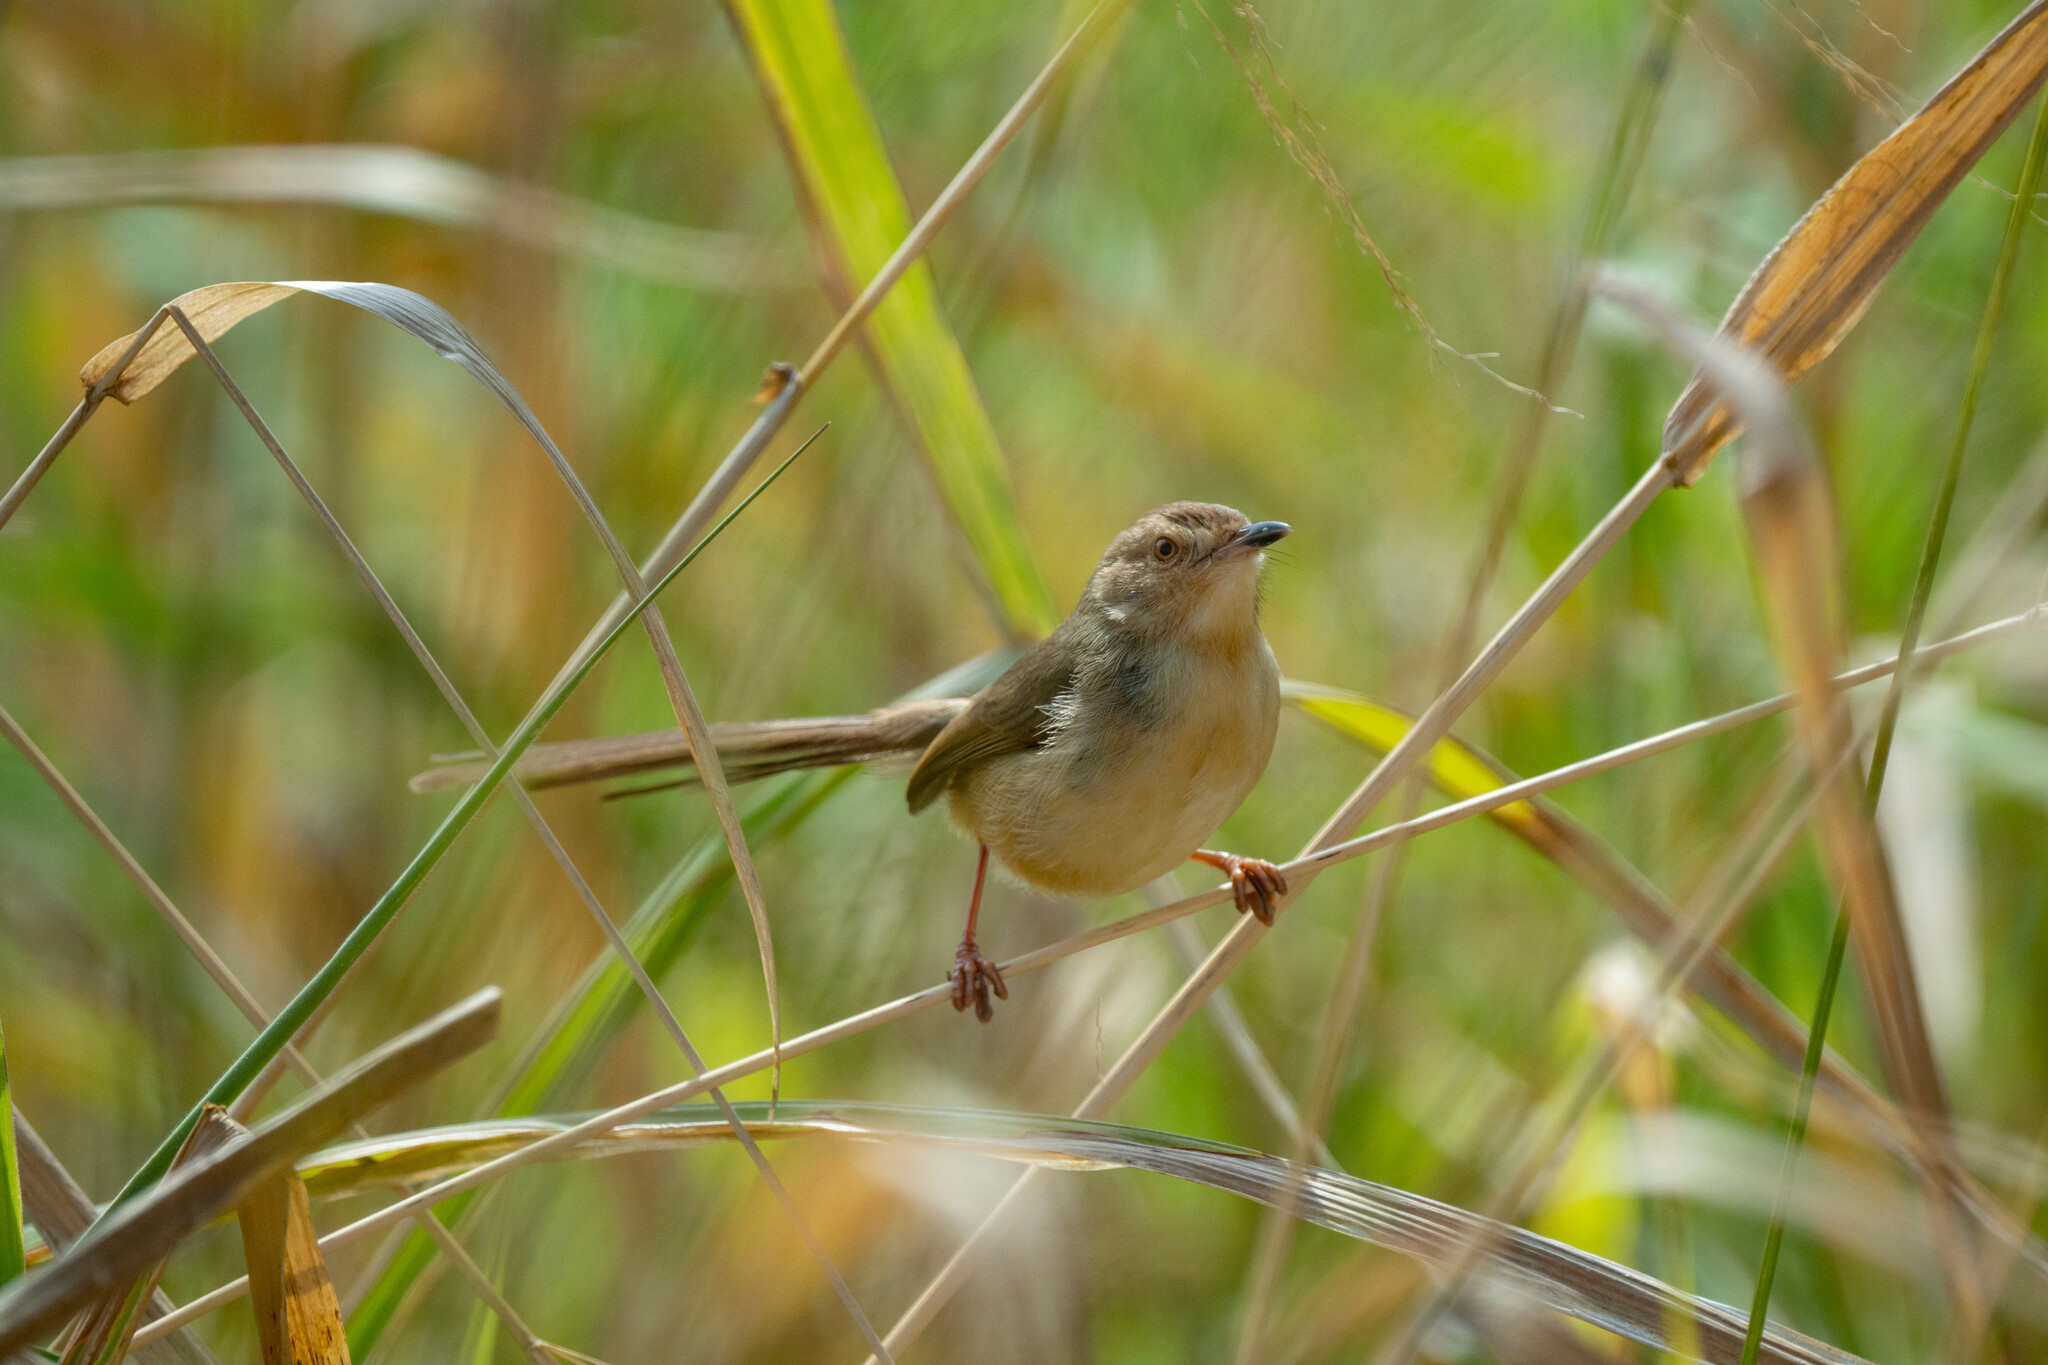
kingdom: Animalia
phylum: Chordata
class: Aves
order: Passeriformes
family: Cisticolidae
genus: Prinia
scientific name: Prinia inornata
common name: Plain prinia
